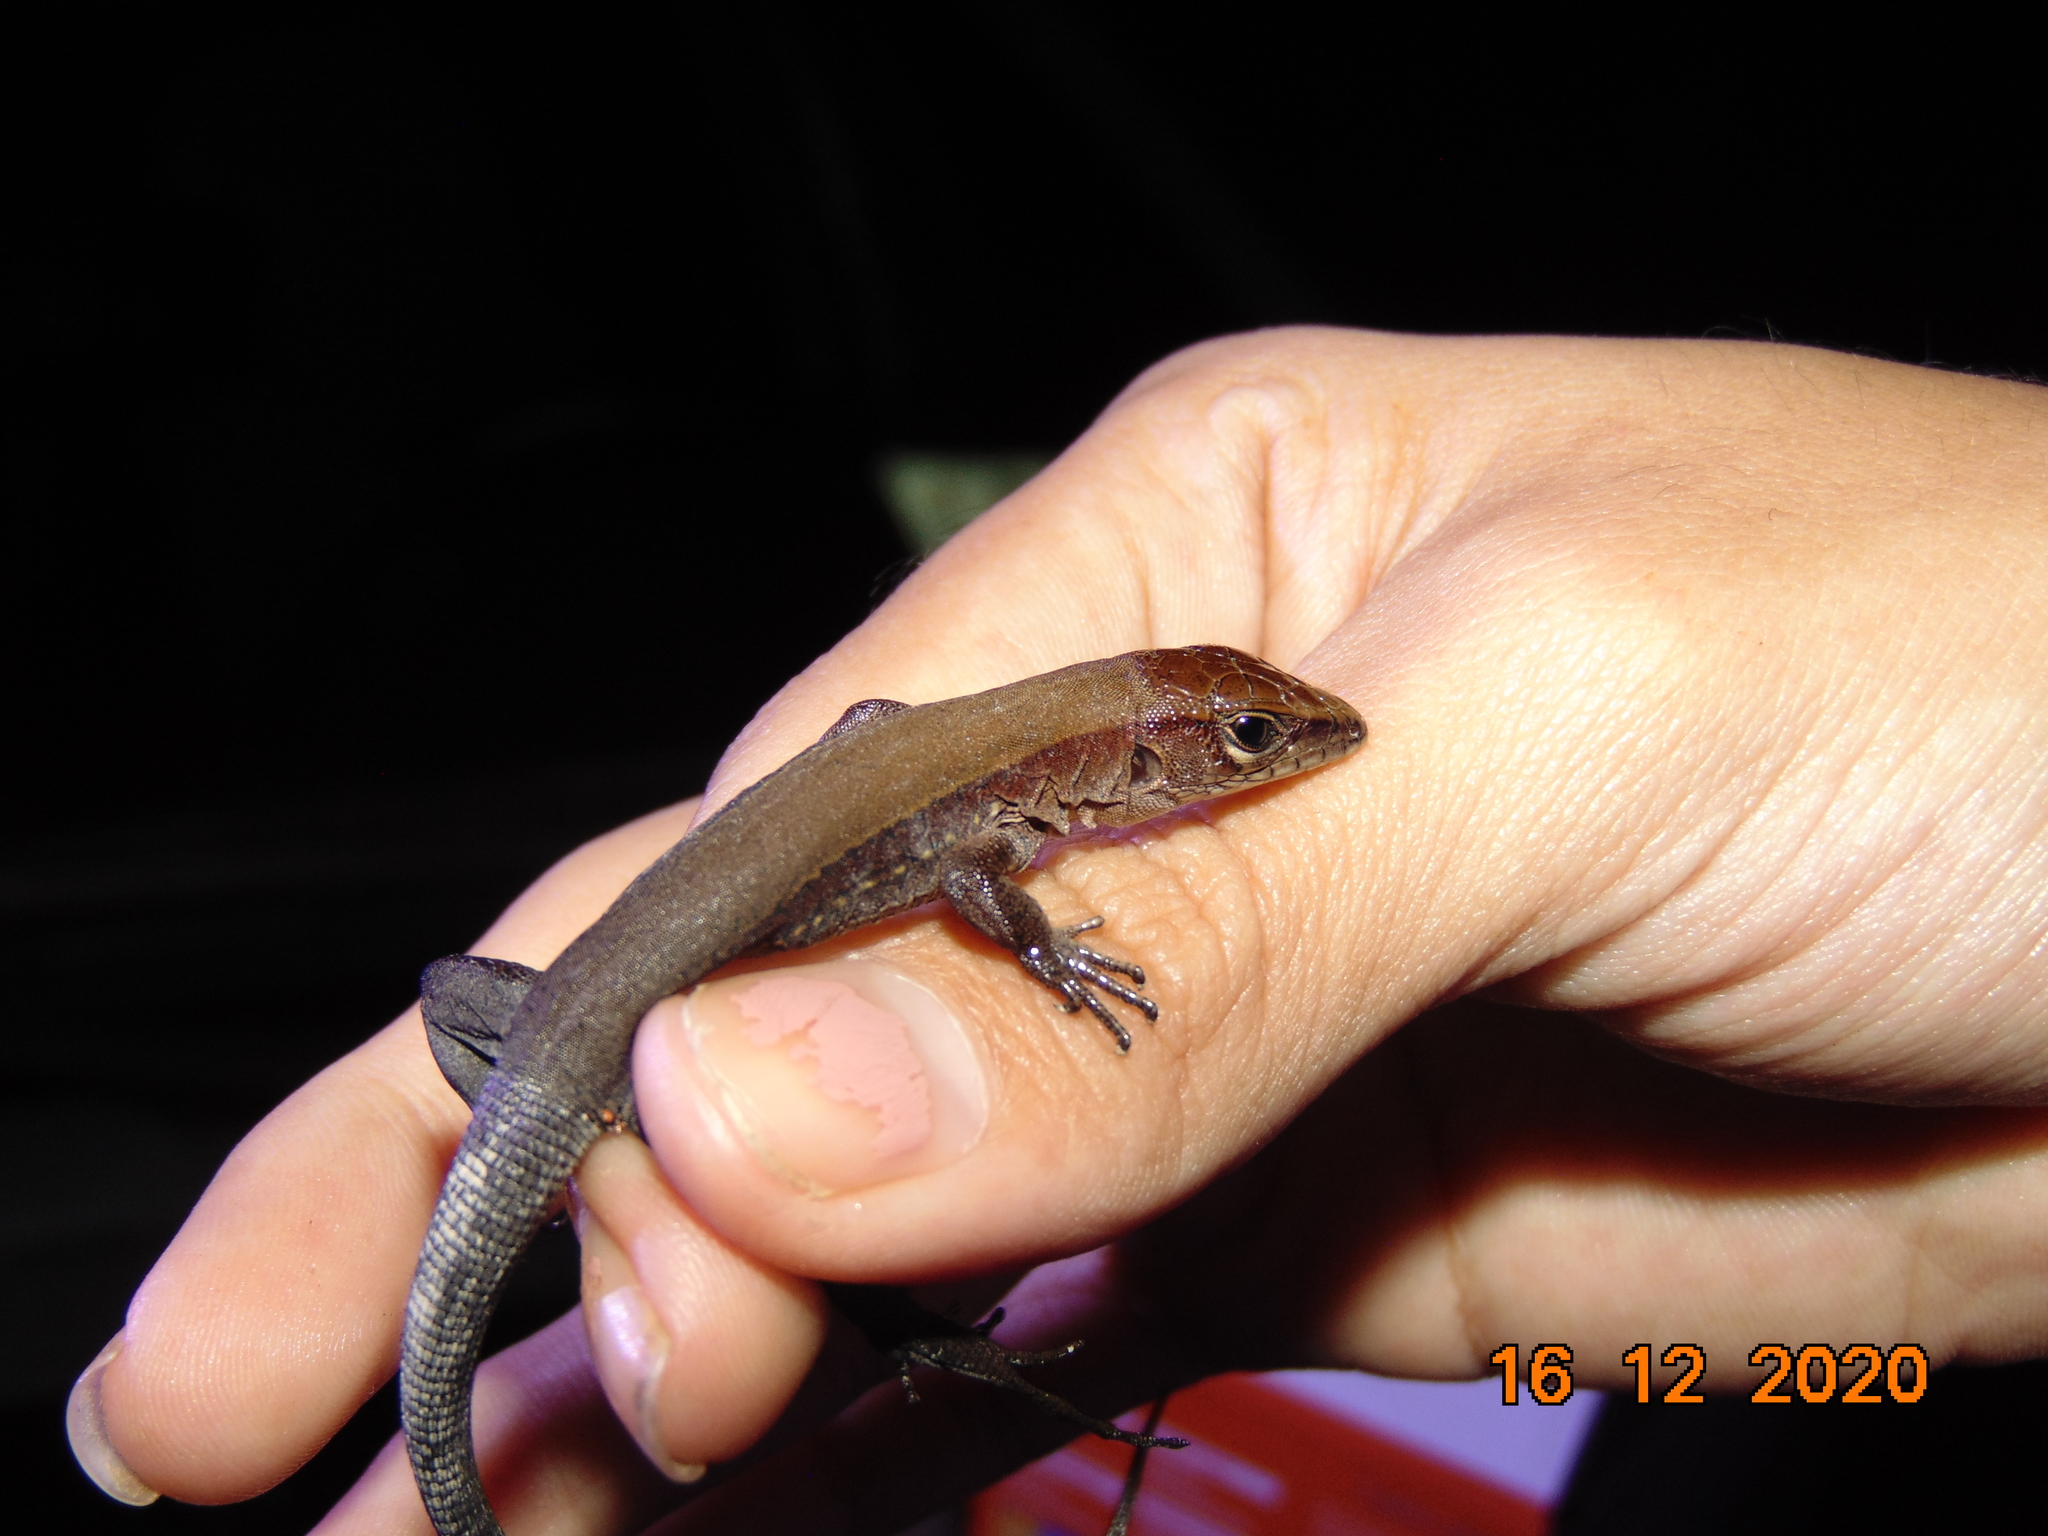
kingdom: Animalia
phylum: Chordata
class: Squamata
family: Teiidae
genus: Holcosus
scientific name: Holcosus gaigeae
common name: Rainbow ameiva
